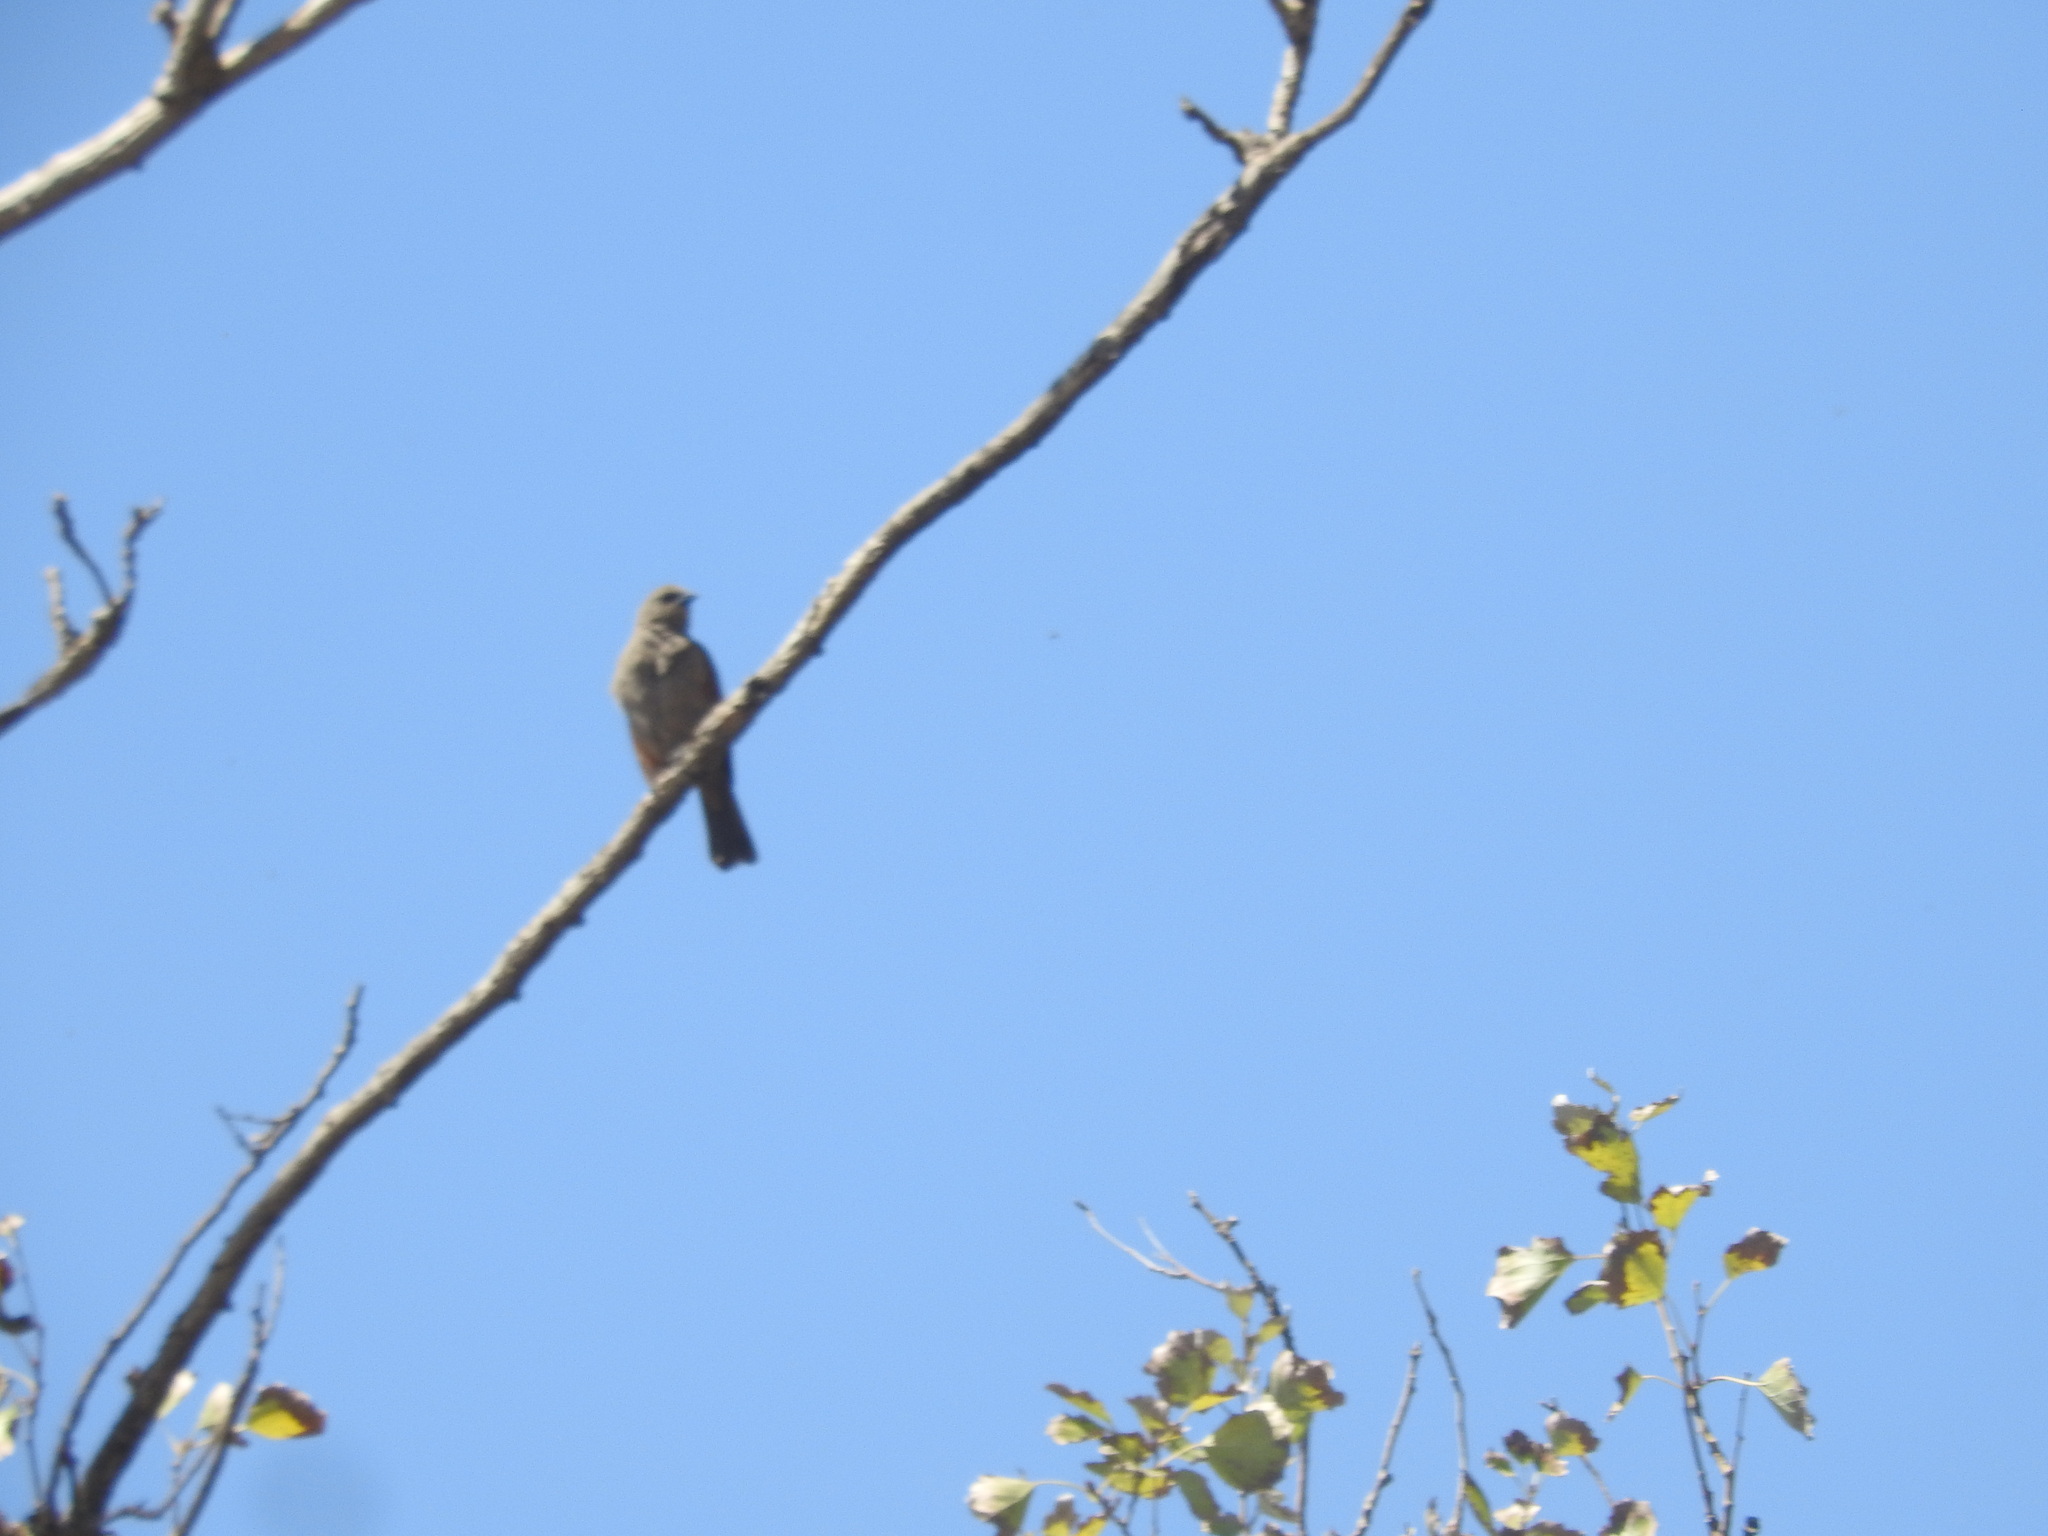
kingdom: Animalia
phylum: Chordata
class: Aves
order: Passeriformes
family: Icteridae
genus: Agelaioides
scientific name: Agelaioides badius
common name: Baywing
